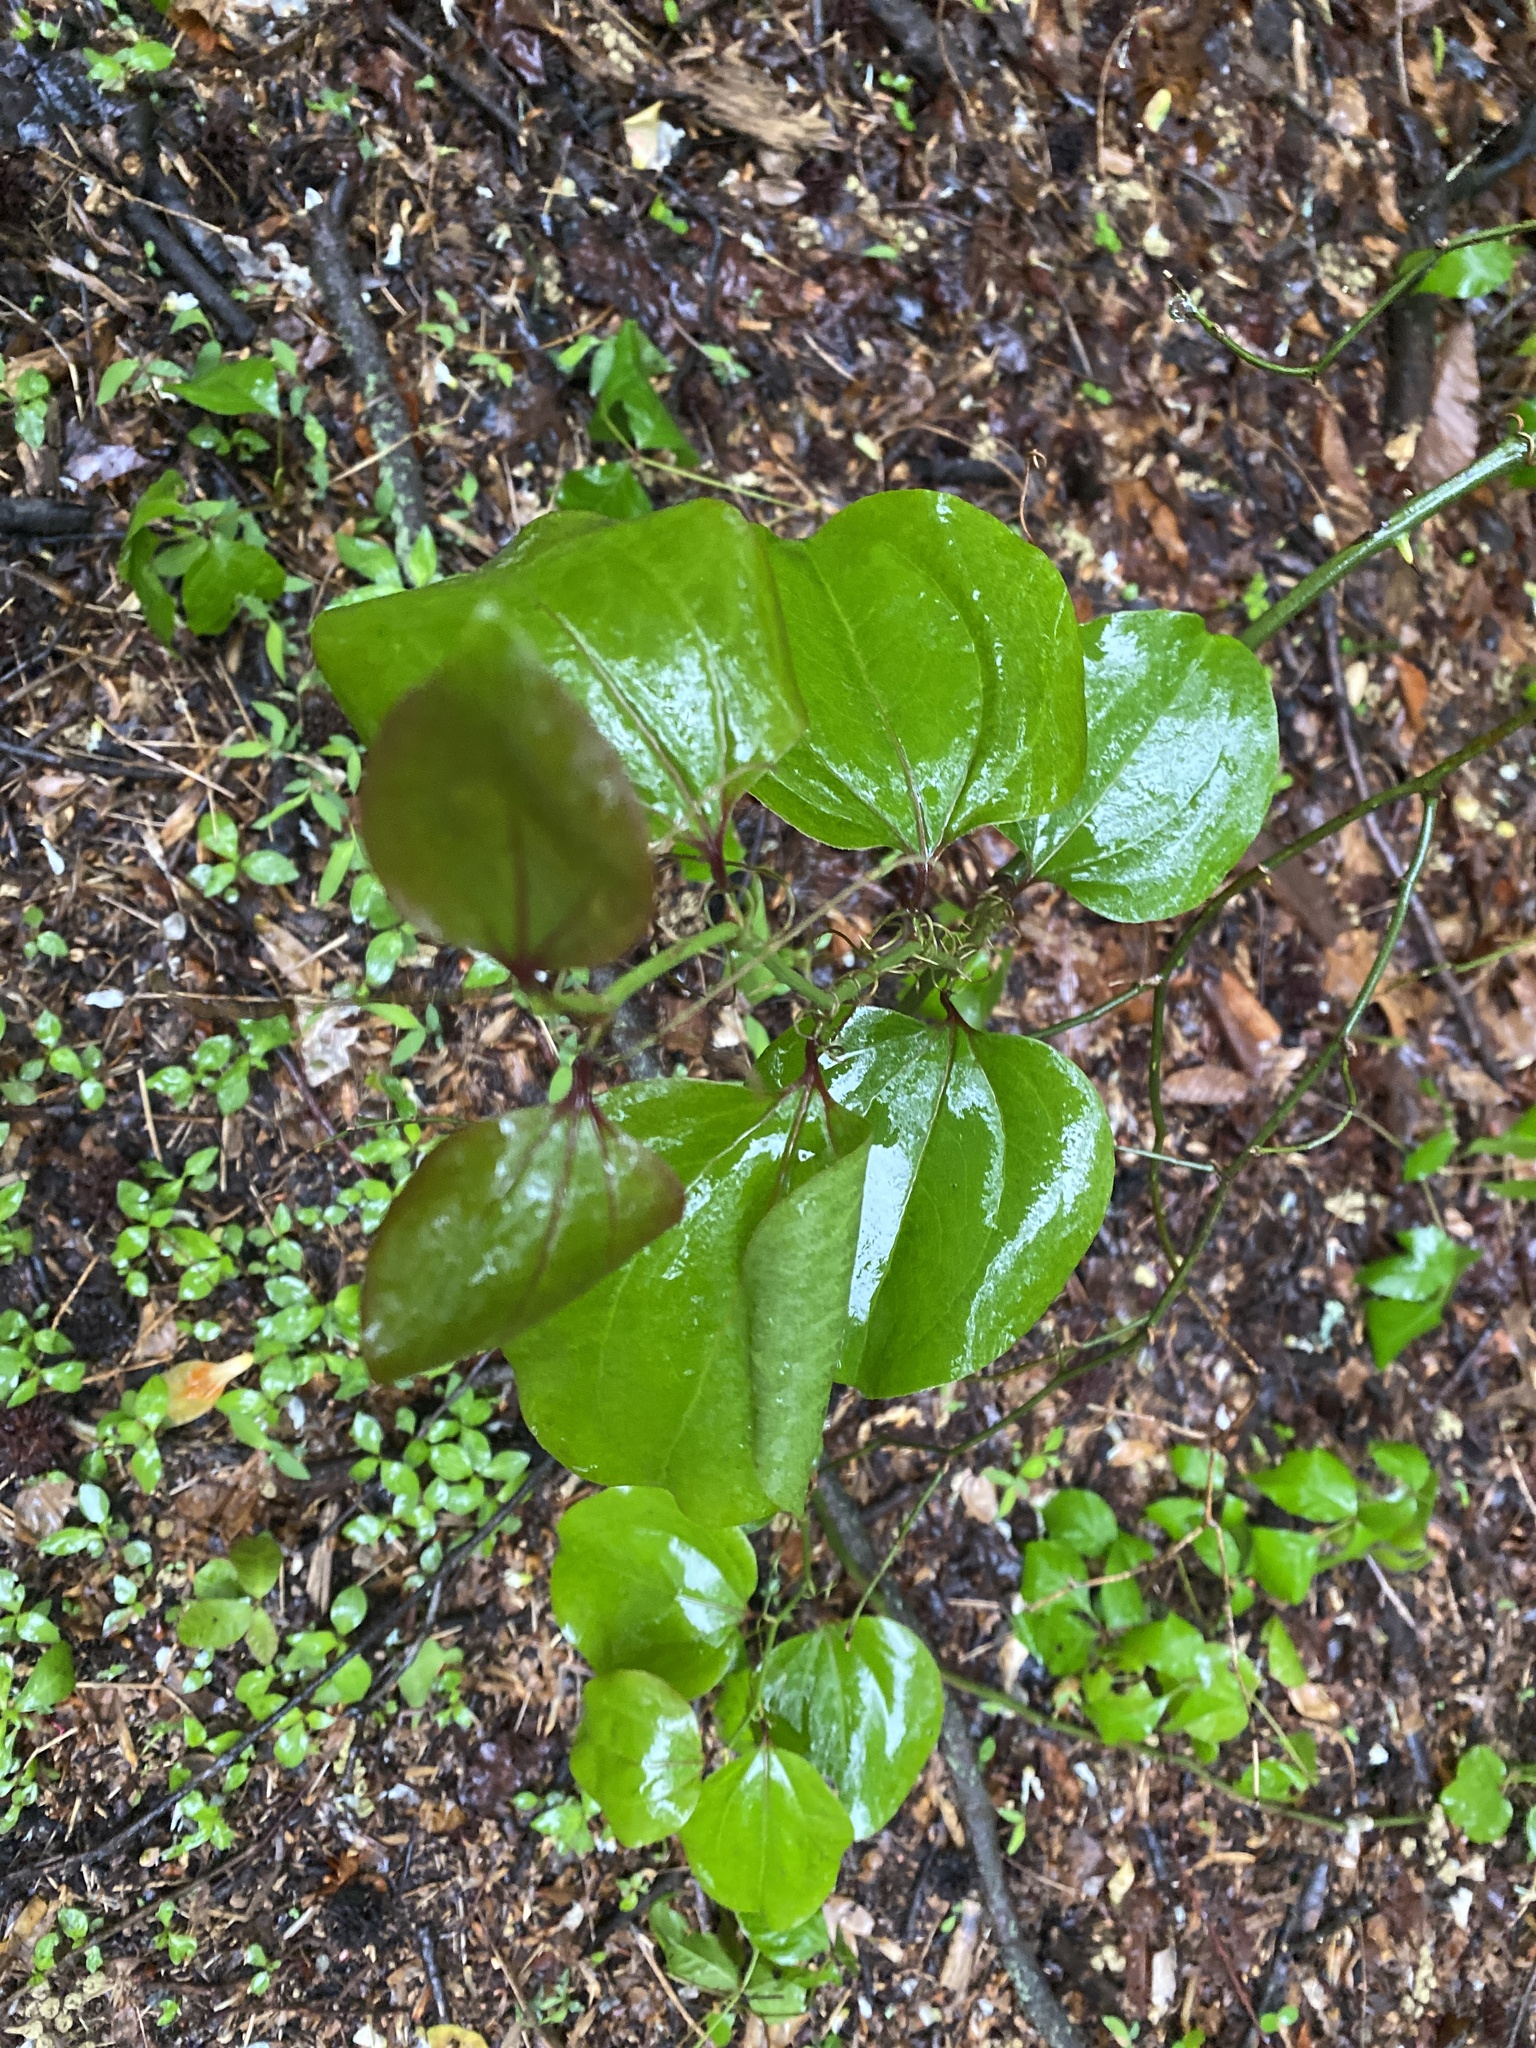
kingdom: Plantae
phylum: Tracheophyta
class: Liliopsida
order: Liliales
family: Smilacaceae
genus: Smilax
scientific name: Smilax rotundifolia
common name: Bullbriar
